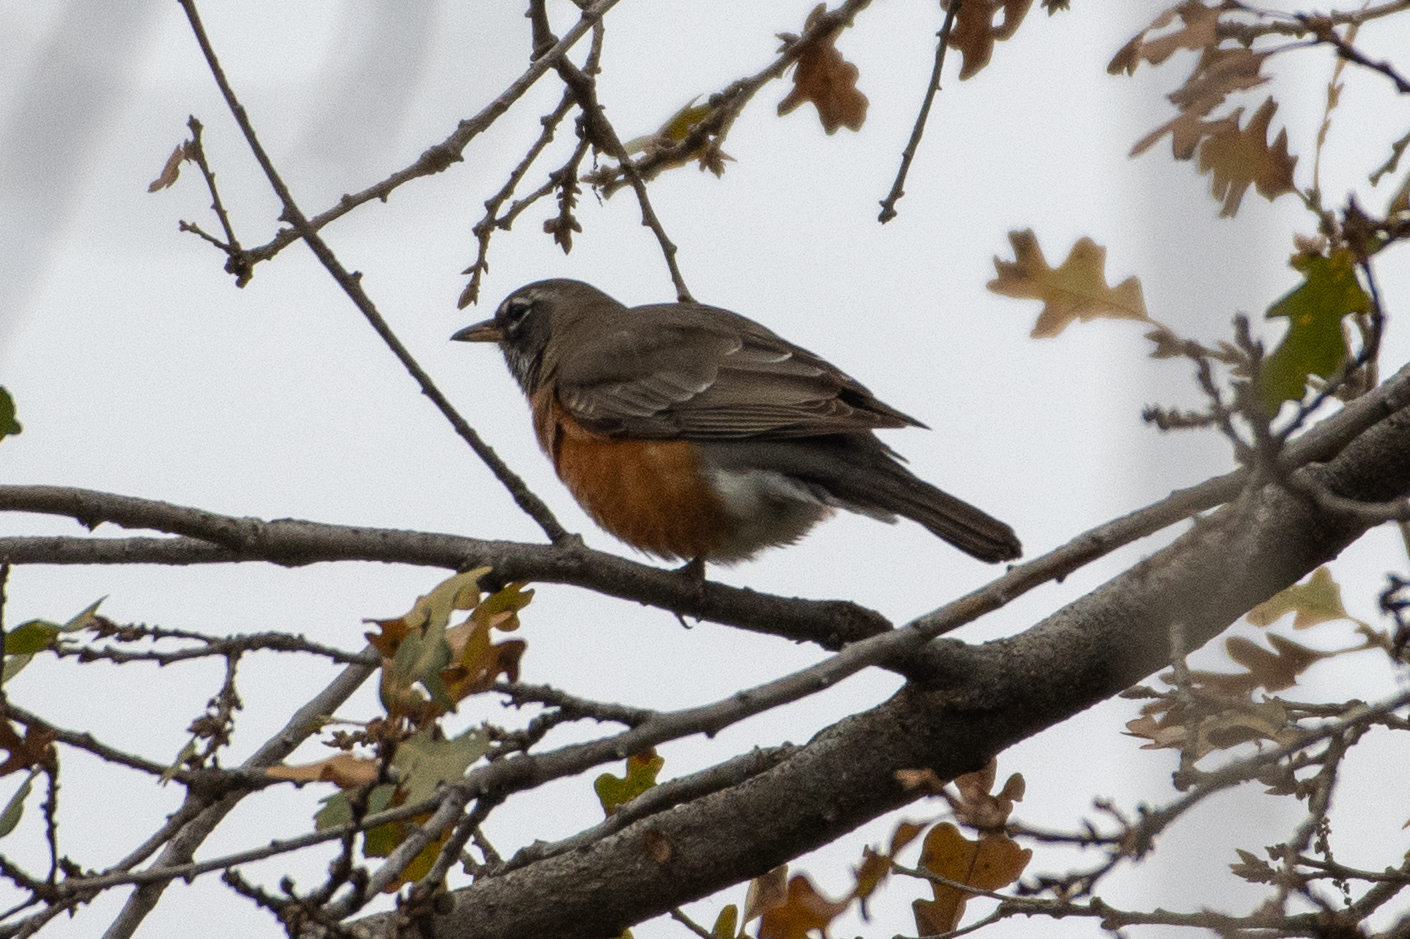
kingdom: Animalia
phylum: Chordata
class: Aves
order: Passeriformes
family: Turdidae
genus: Turdus
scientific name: Turdus migratorius
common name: American robin
